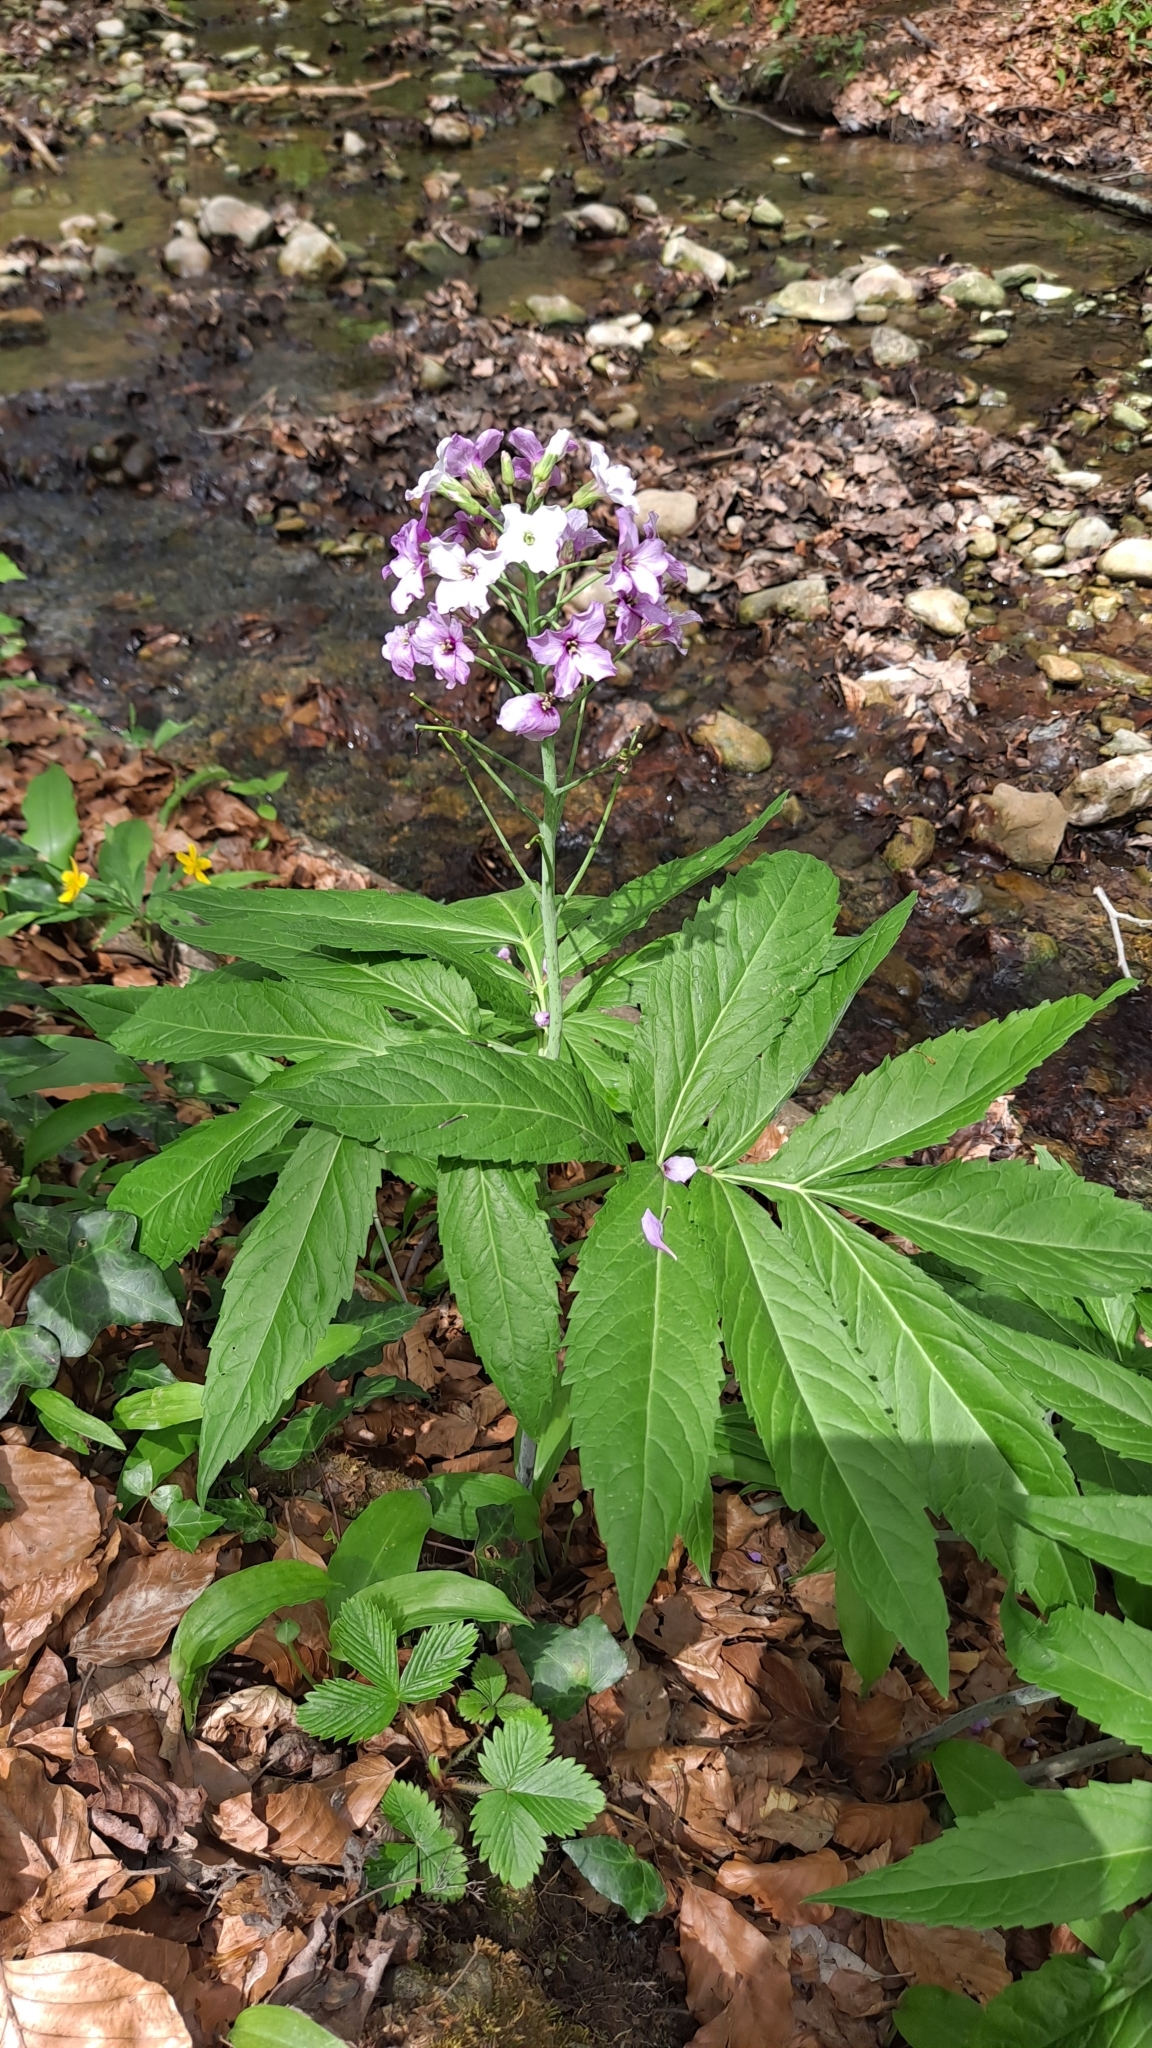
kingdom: Plantae
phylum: Tracheophyta
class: Magnoliopsida
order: Brassicales
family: Brassicaceae
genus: Cardamine
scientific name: Cardamine heptaphylla
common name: Pinnate coralroot
